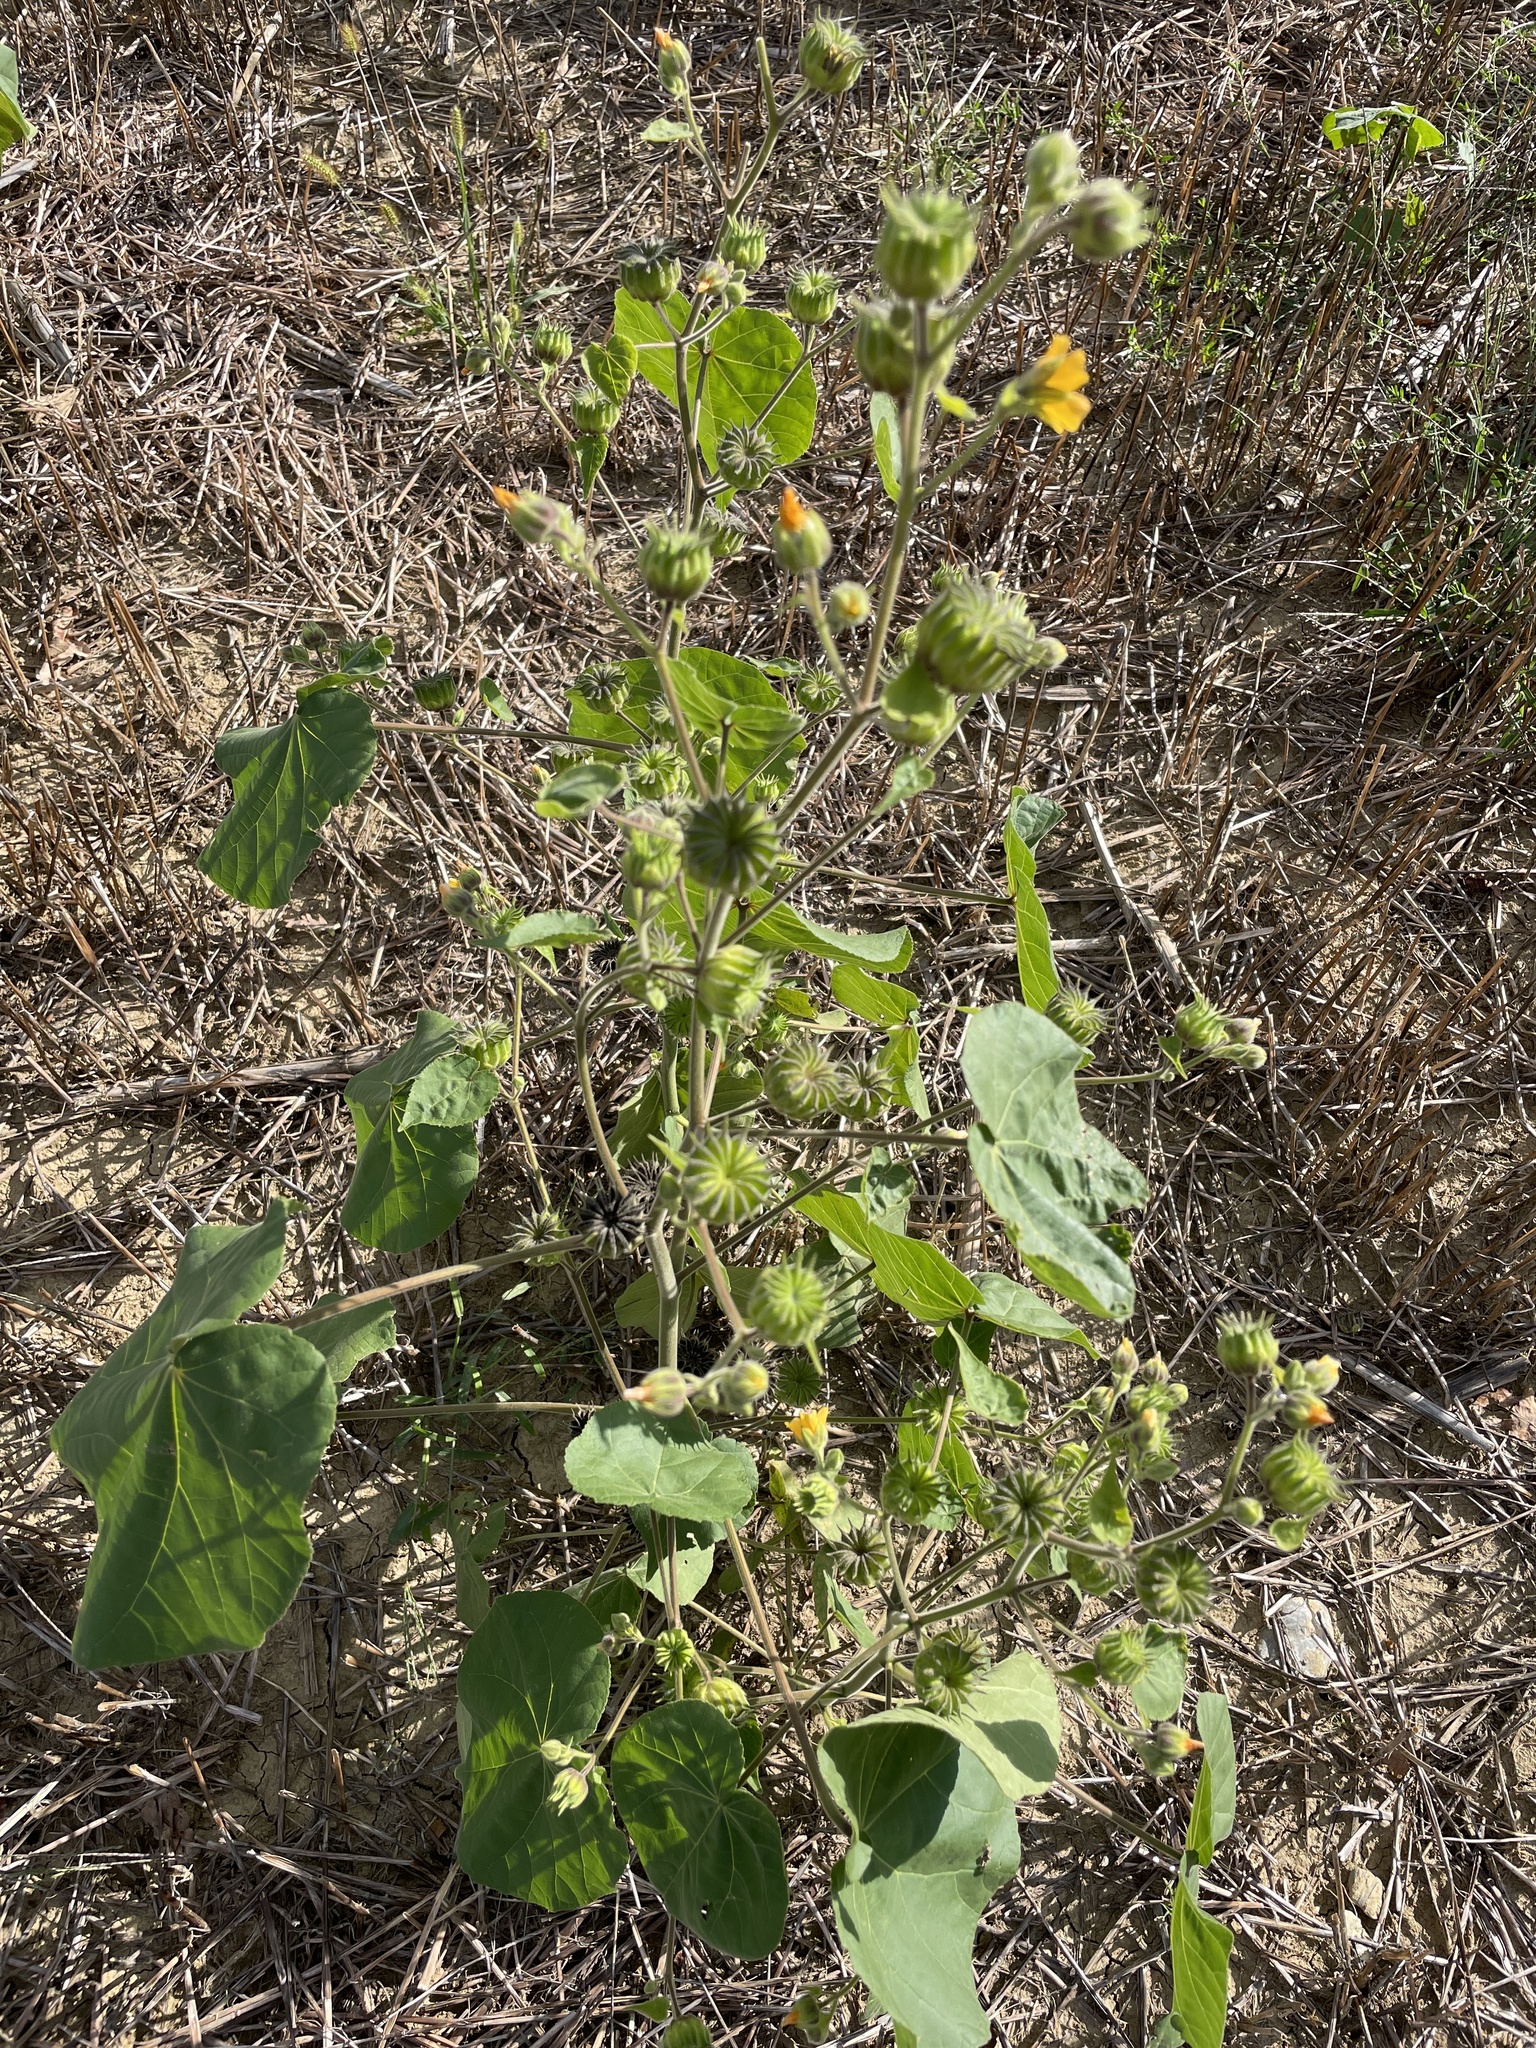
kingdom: Plantae
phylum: Tracheophyta
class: Magnoliopsida
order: Malvales
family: Malvaceae
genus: Abutilon
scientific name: Abutilon theophrasti
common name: Velvetleaf
